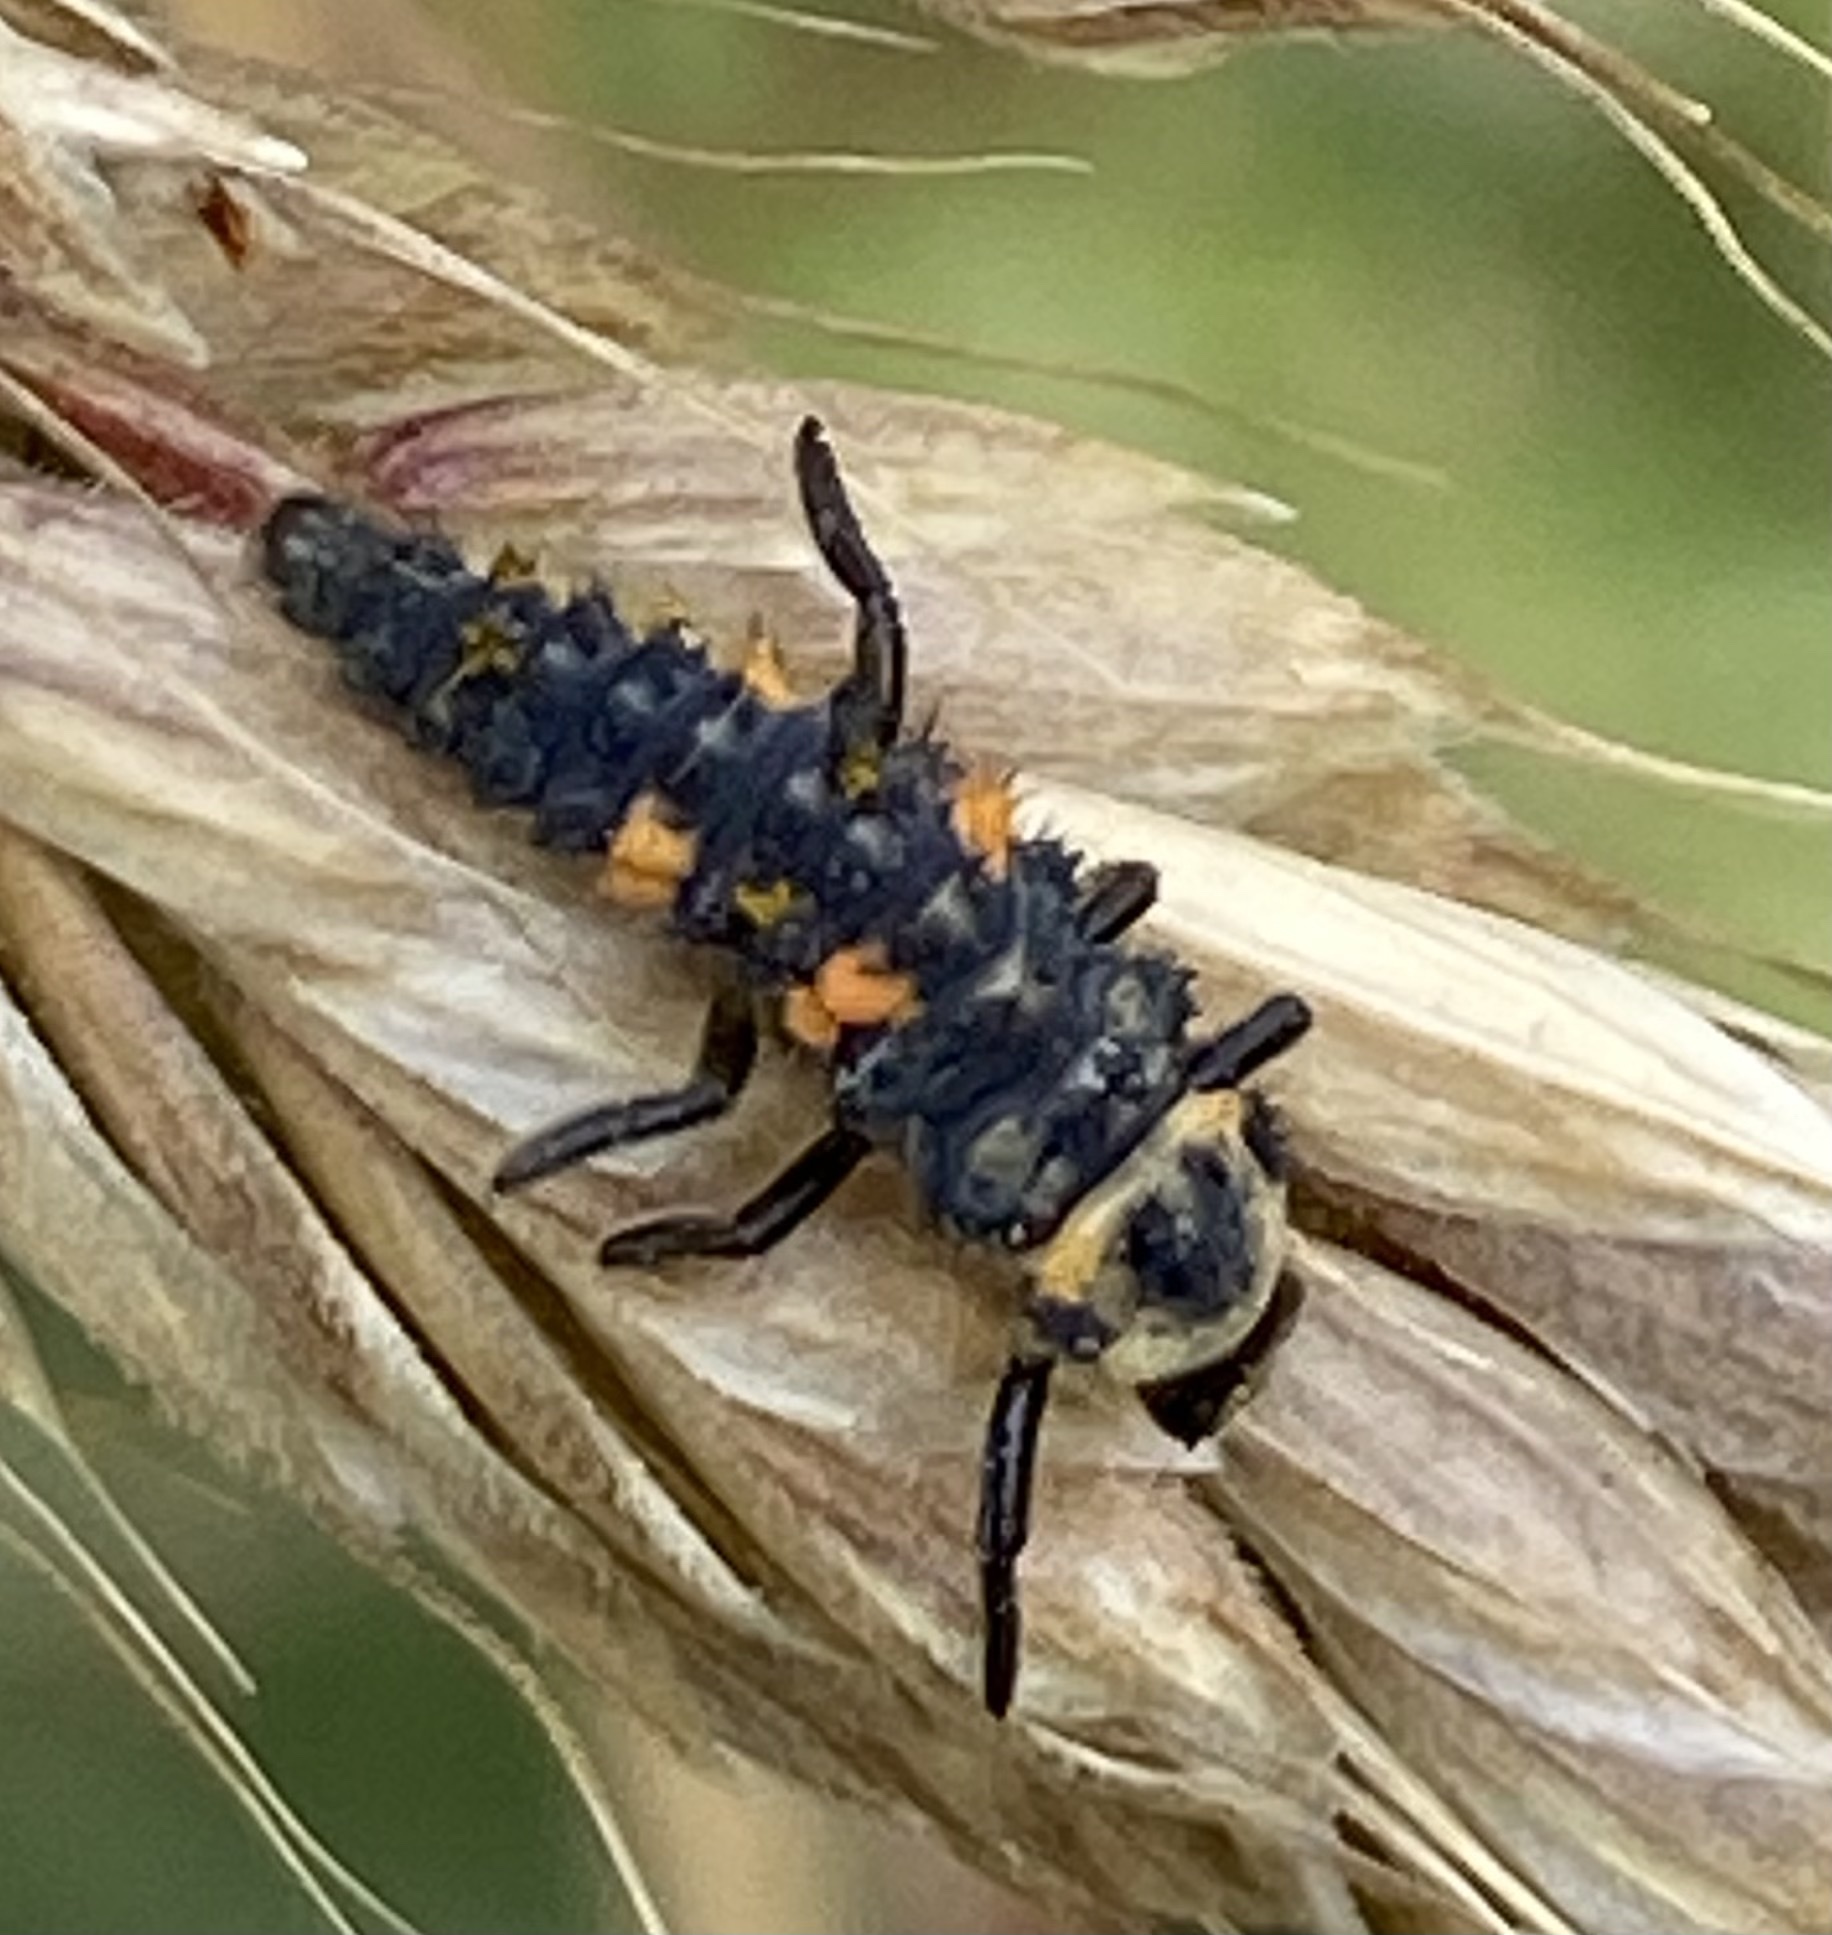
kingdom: Animalia
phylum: Arthropoda
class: Insecta
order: Coleoptera
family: Coccinellidae
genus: Coccinella
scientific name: Coccinella septempunctata
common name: Sevenspotted lady beetle
